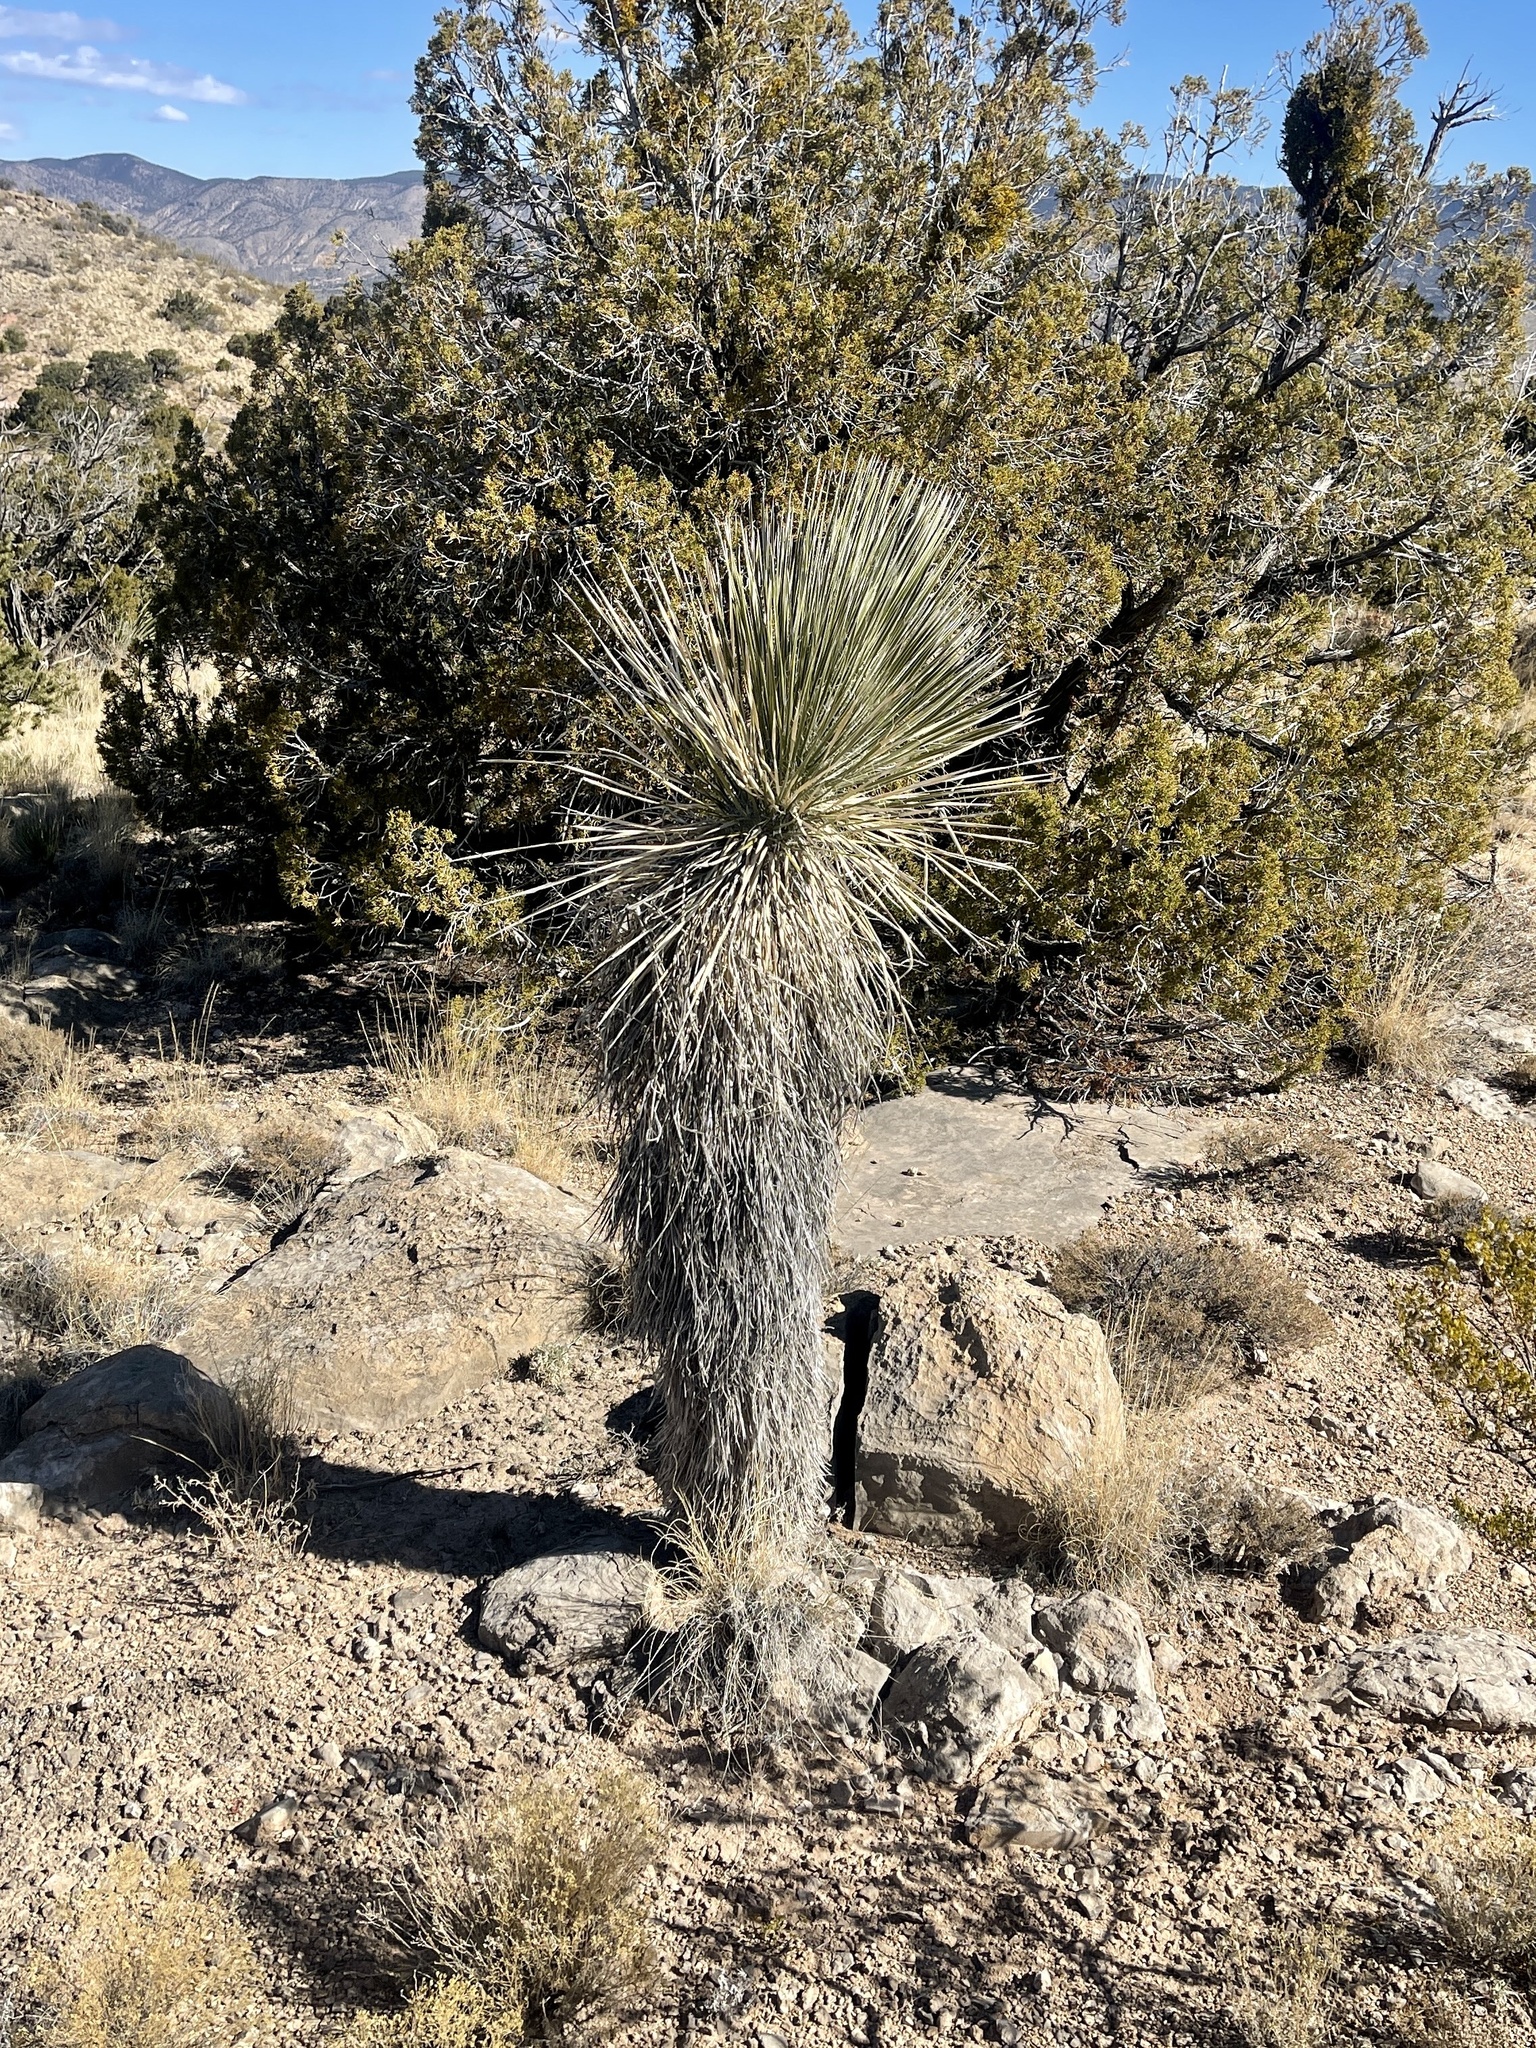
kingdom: Plantae
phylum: Tracheophyta
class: Liliopsida
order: Asparagales
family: Asparagaceae
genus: Yucca
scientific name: Yucca elata
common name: Palmella
